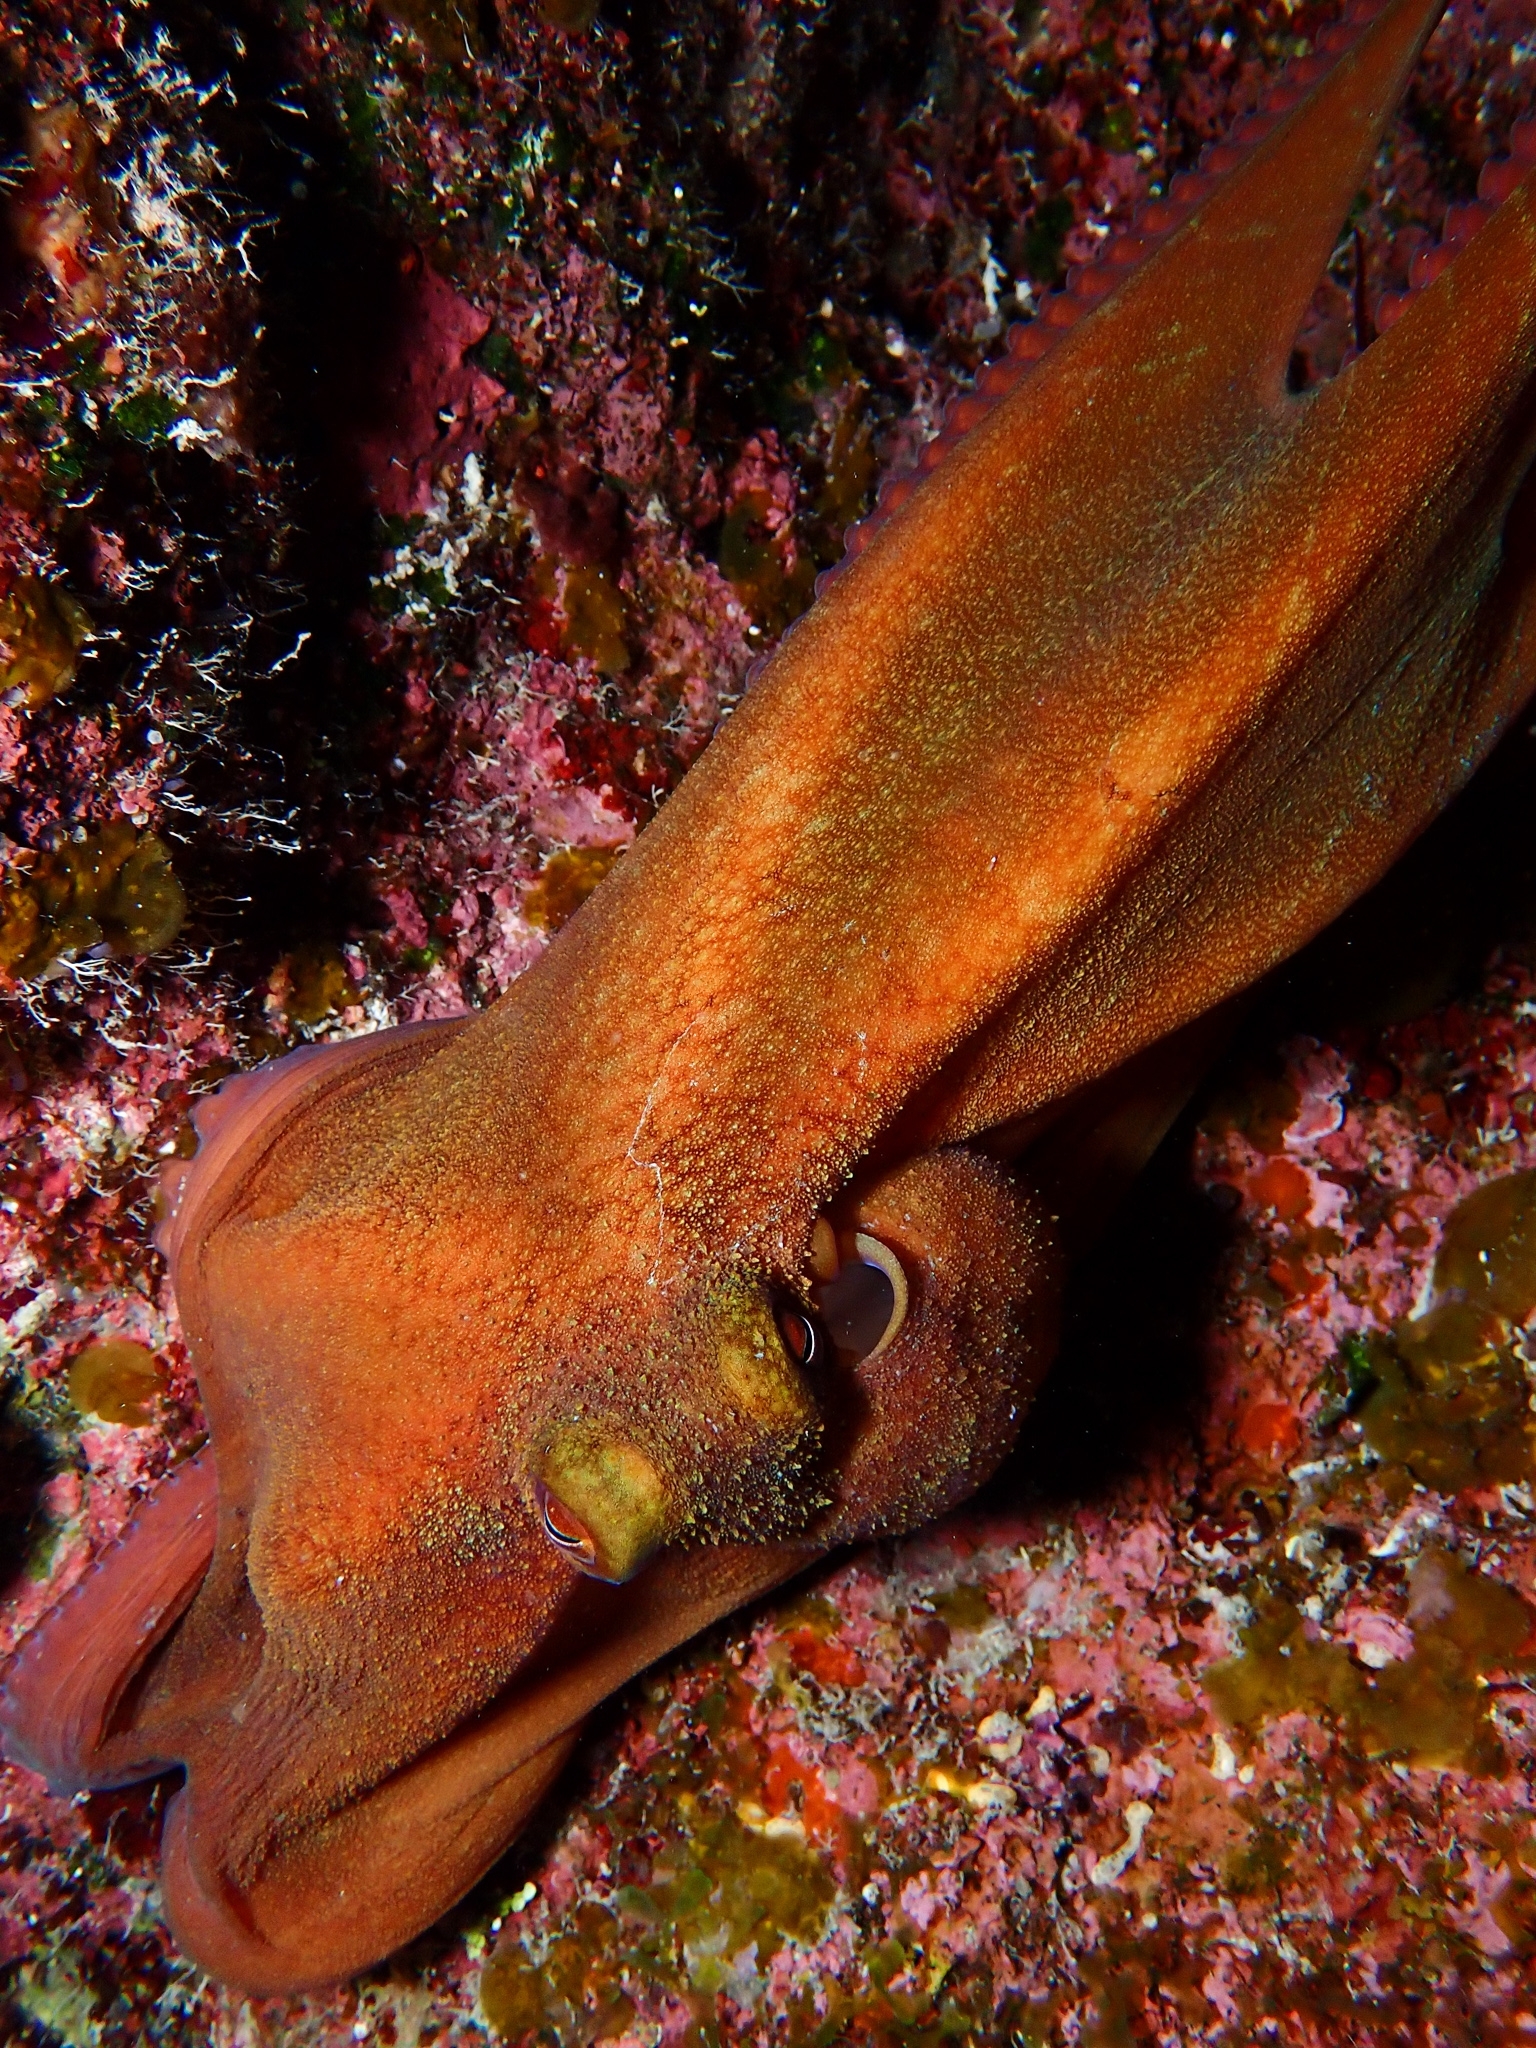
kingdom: Animalia
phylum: Mollusca
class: Cephalopoda
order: Octopoda
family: Octopodidae
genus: Octopus
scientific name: Octopus briareus
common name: Caribbean reef octopus
